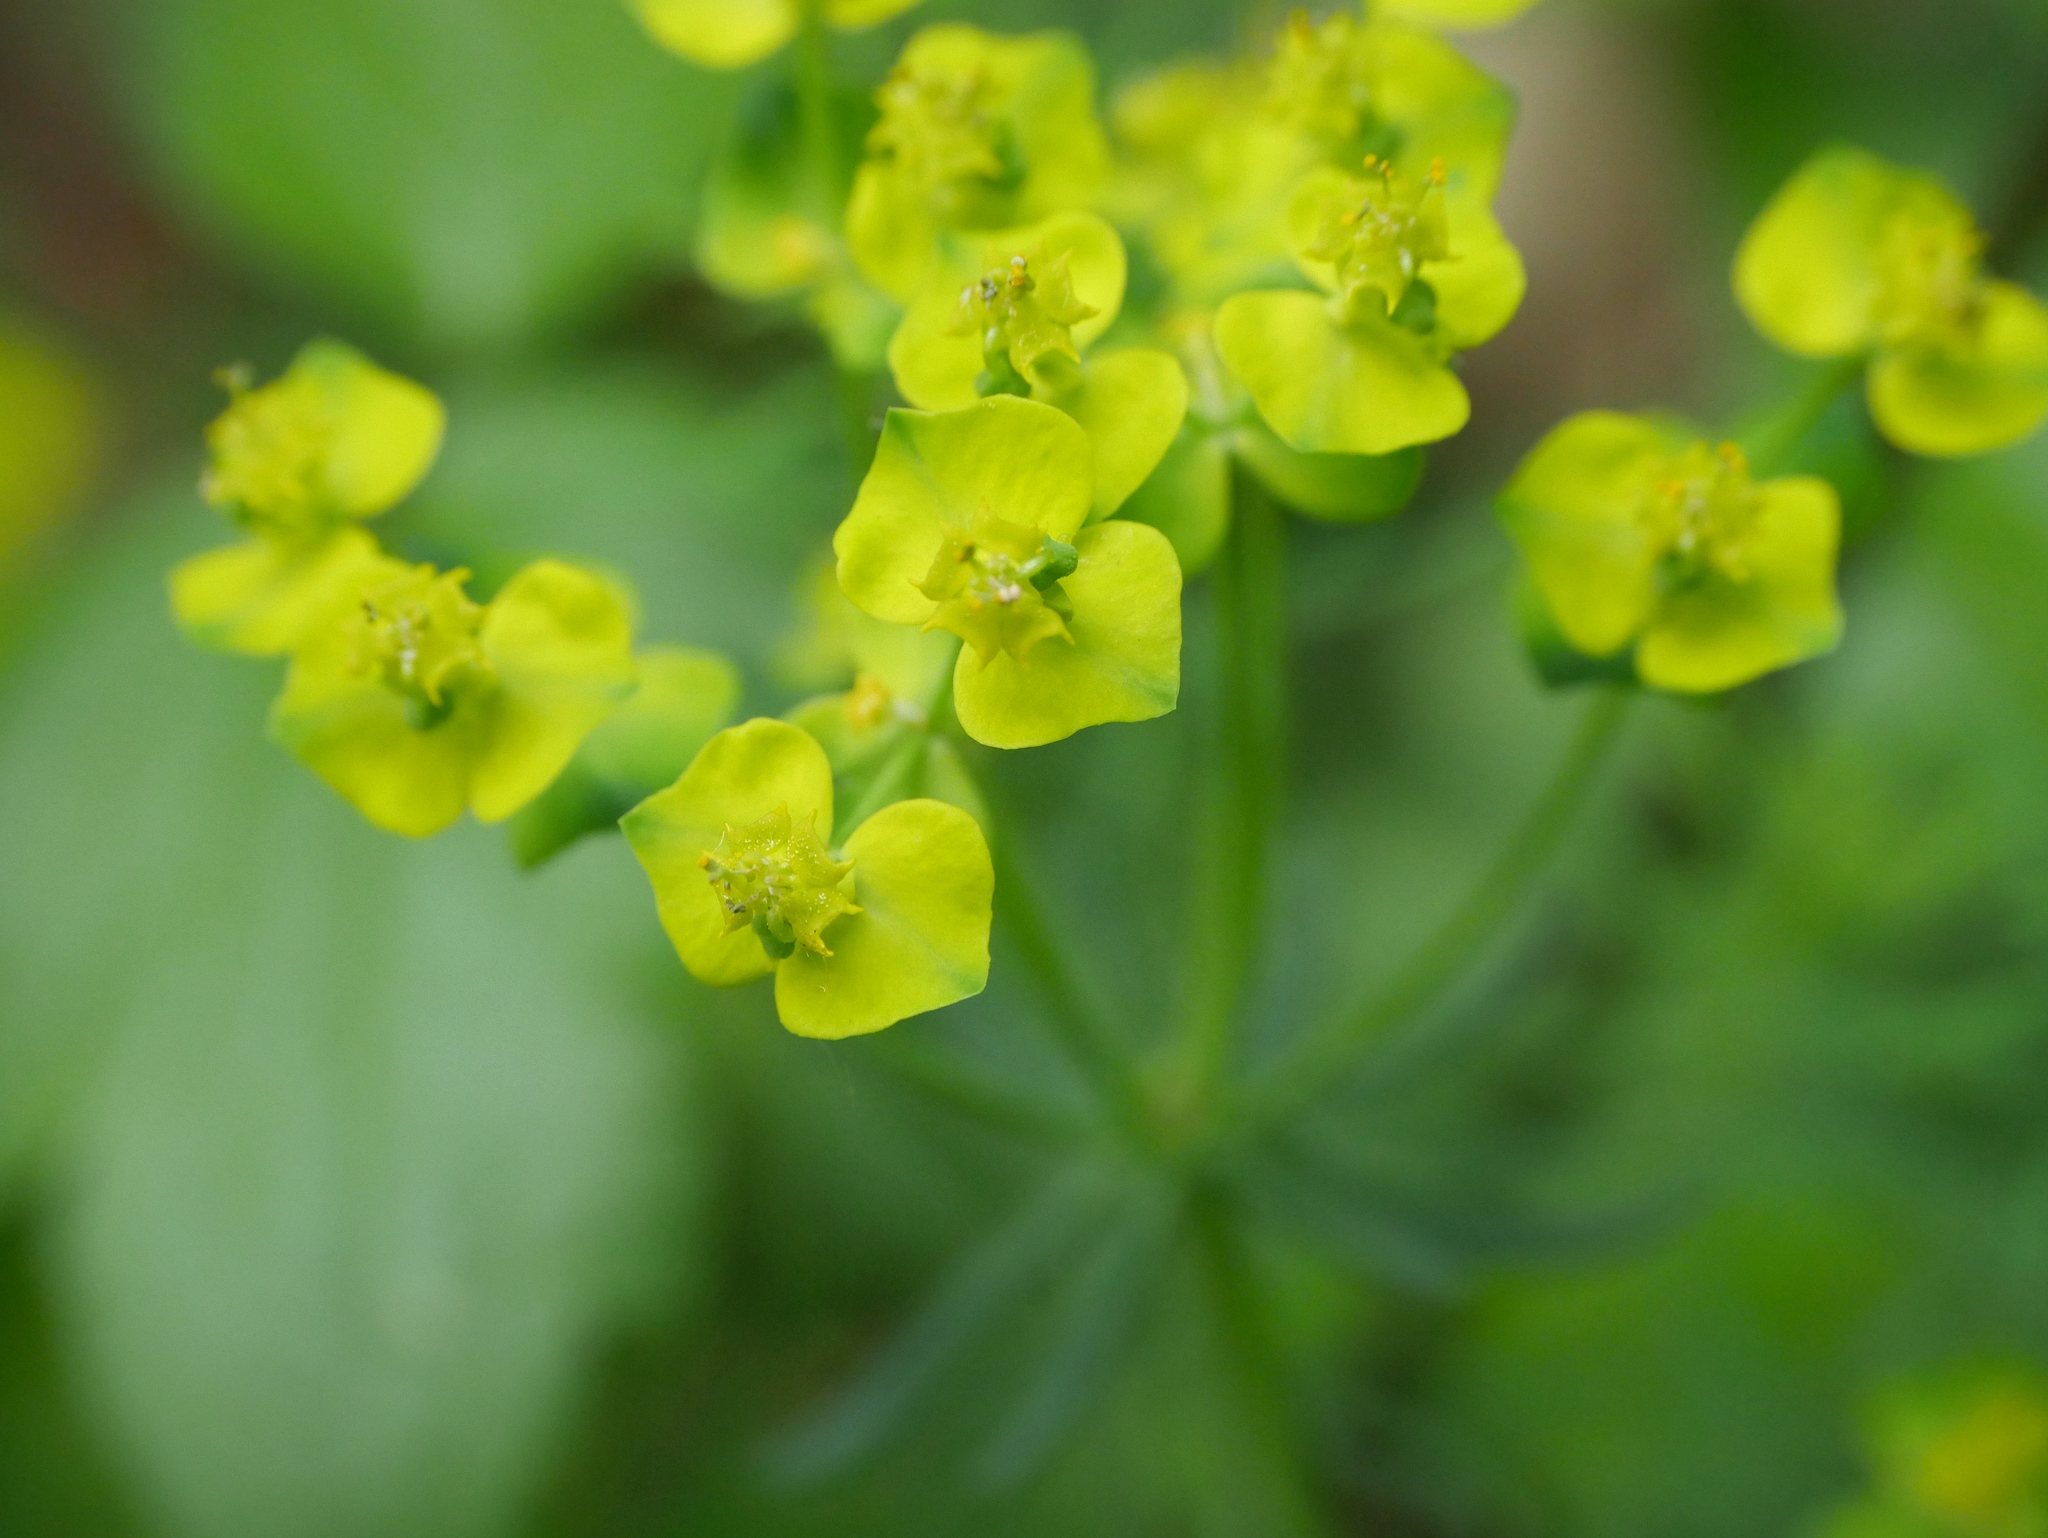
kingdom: Plantae
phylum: Tracheophyta
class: Magnoliopsida
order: Malpighiales
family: Euphorbiaceae
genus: Euphorbia
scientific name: Euphorbia cyparissias
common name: Cypress spurge
